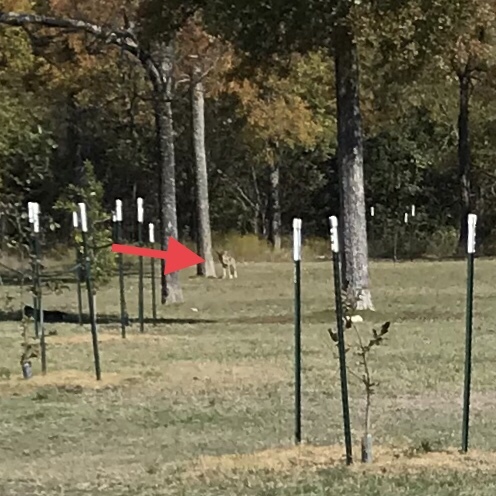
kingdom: Animalia
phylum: Chordata
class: Mammalia
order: Carnivora
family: Canidae
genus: Canis
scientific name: Canis latrans
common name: Coyote
